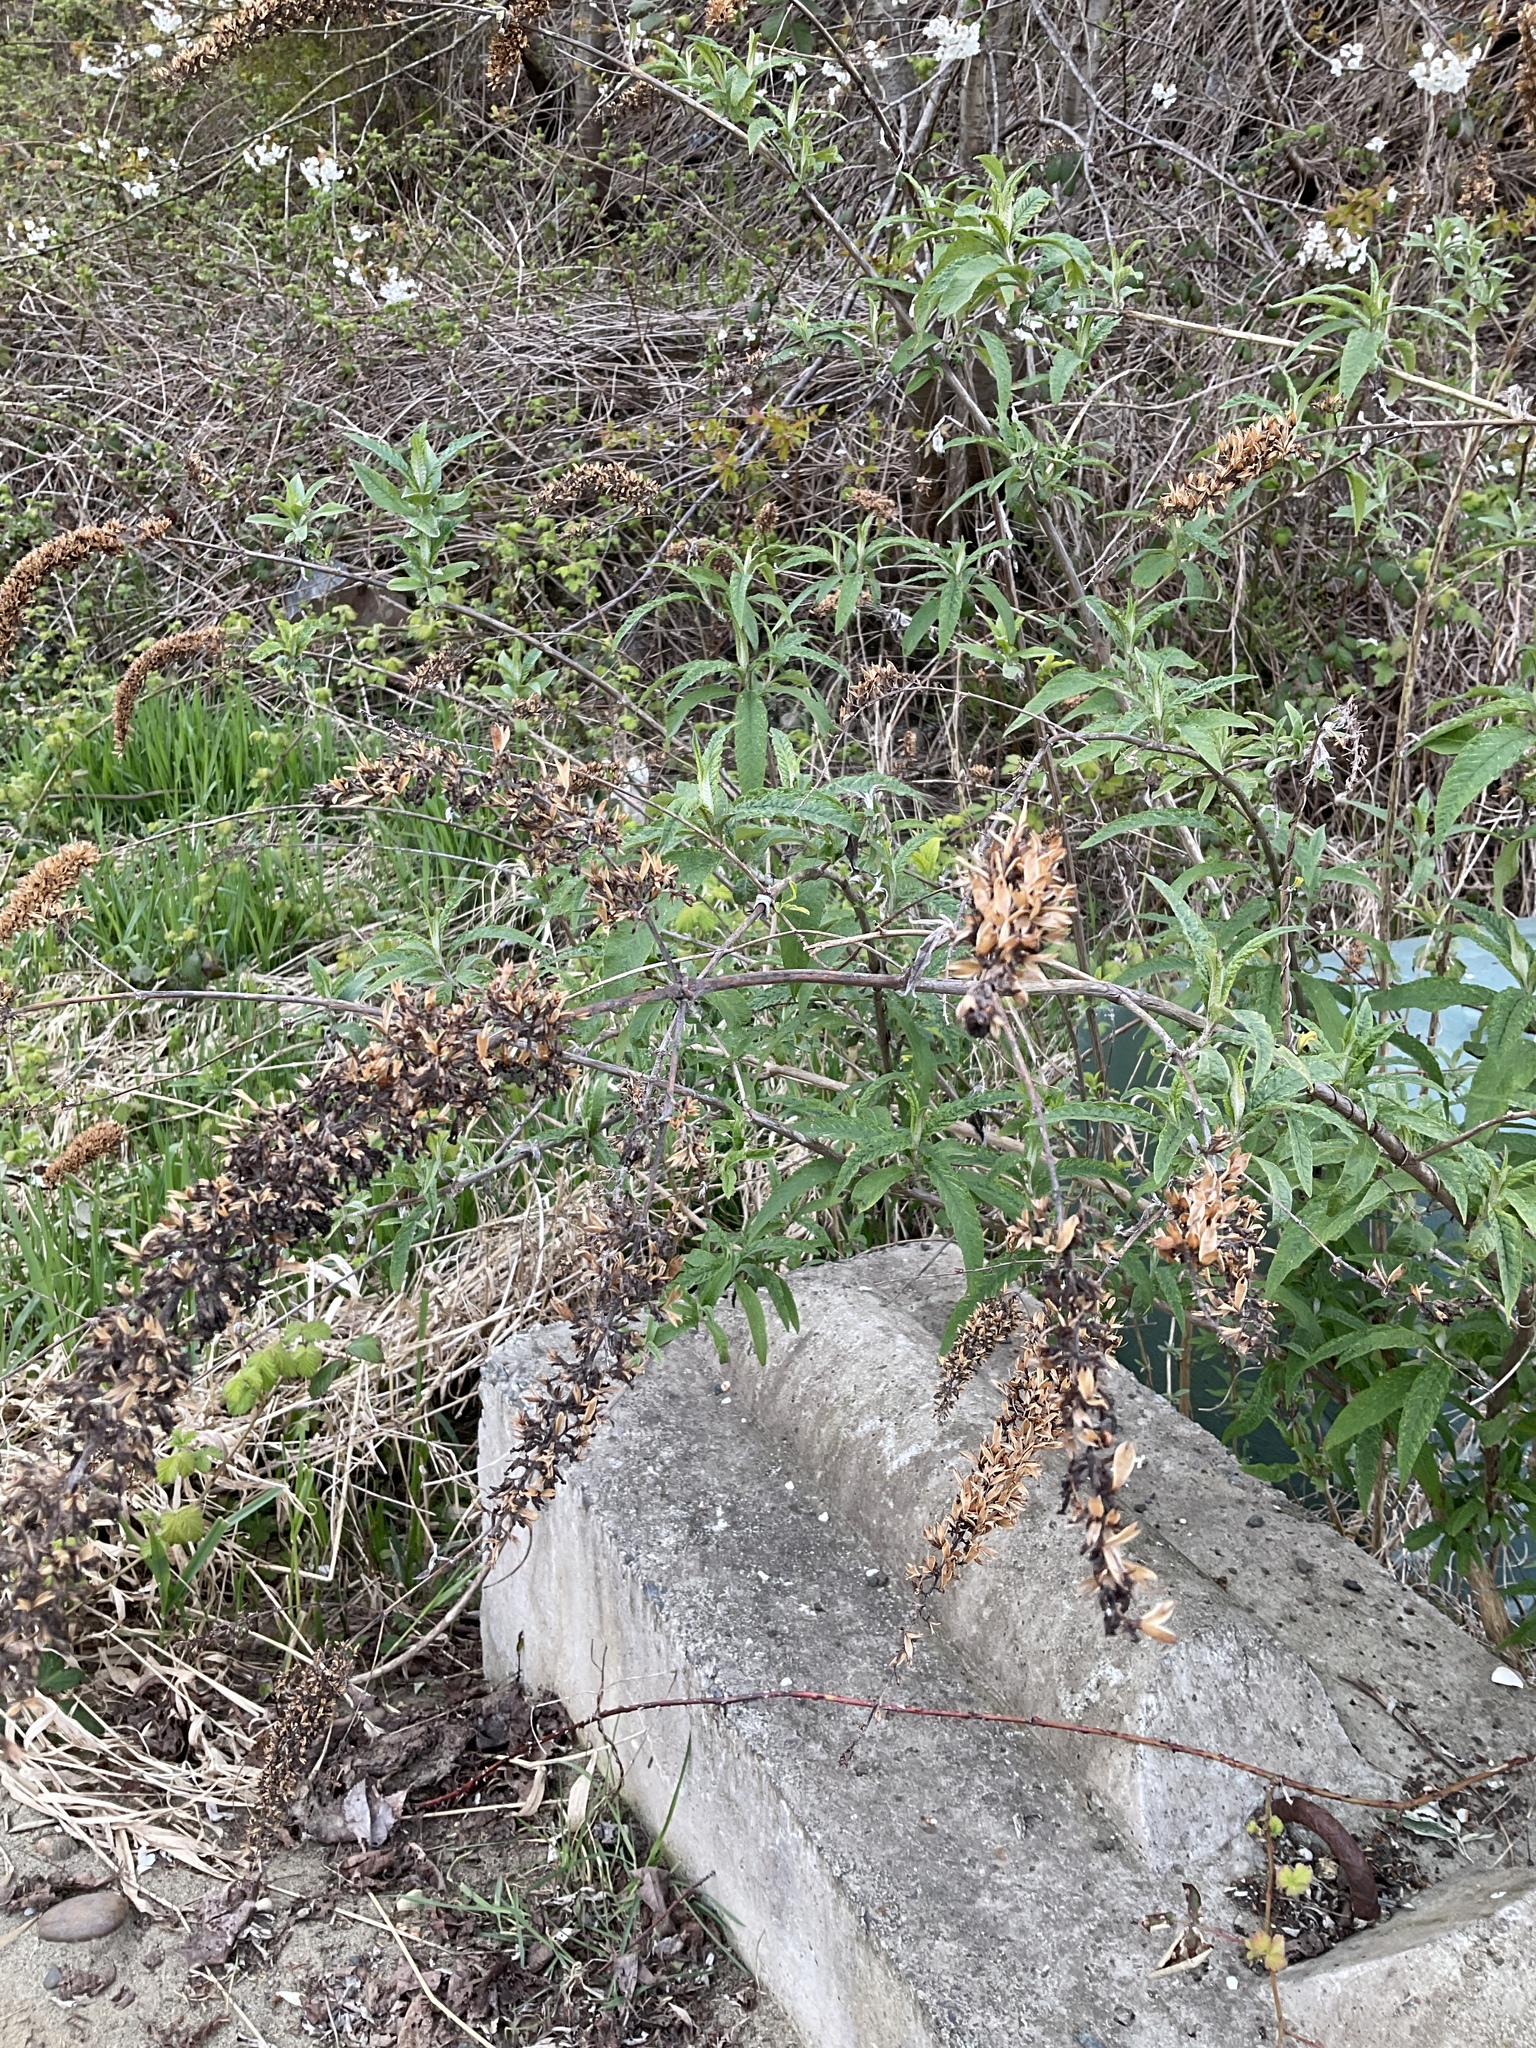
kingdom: Plantae
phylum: Tracheophyta
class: Magnoliopsida
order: Lamiales
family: Scrophulariaceae
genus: Buddleja
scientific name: Buddleja davidii
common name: Butterfly-bush
